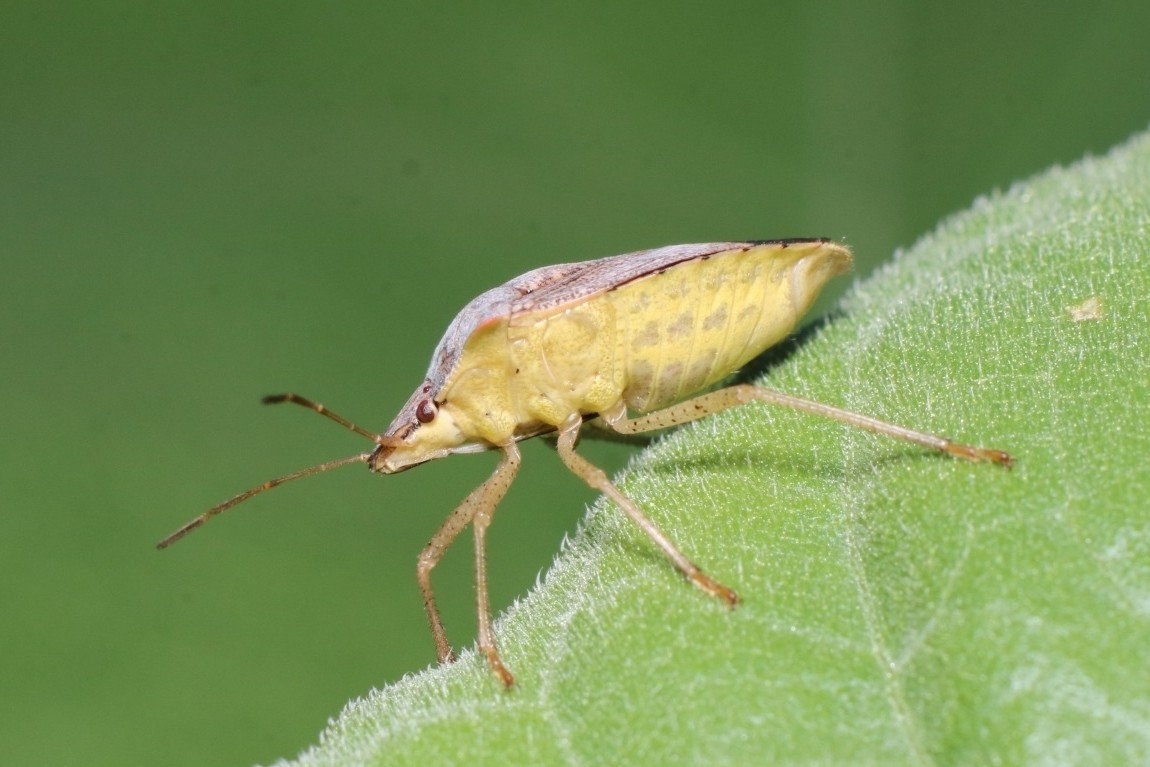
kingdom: Animalia
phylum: Arthropoda
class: Insecta
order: Hemiptera
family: Pentatomidae
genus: Euschistus
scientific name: Euschistus servus
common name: Brown stink bug
